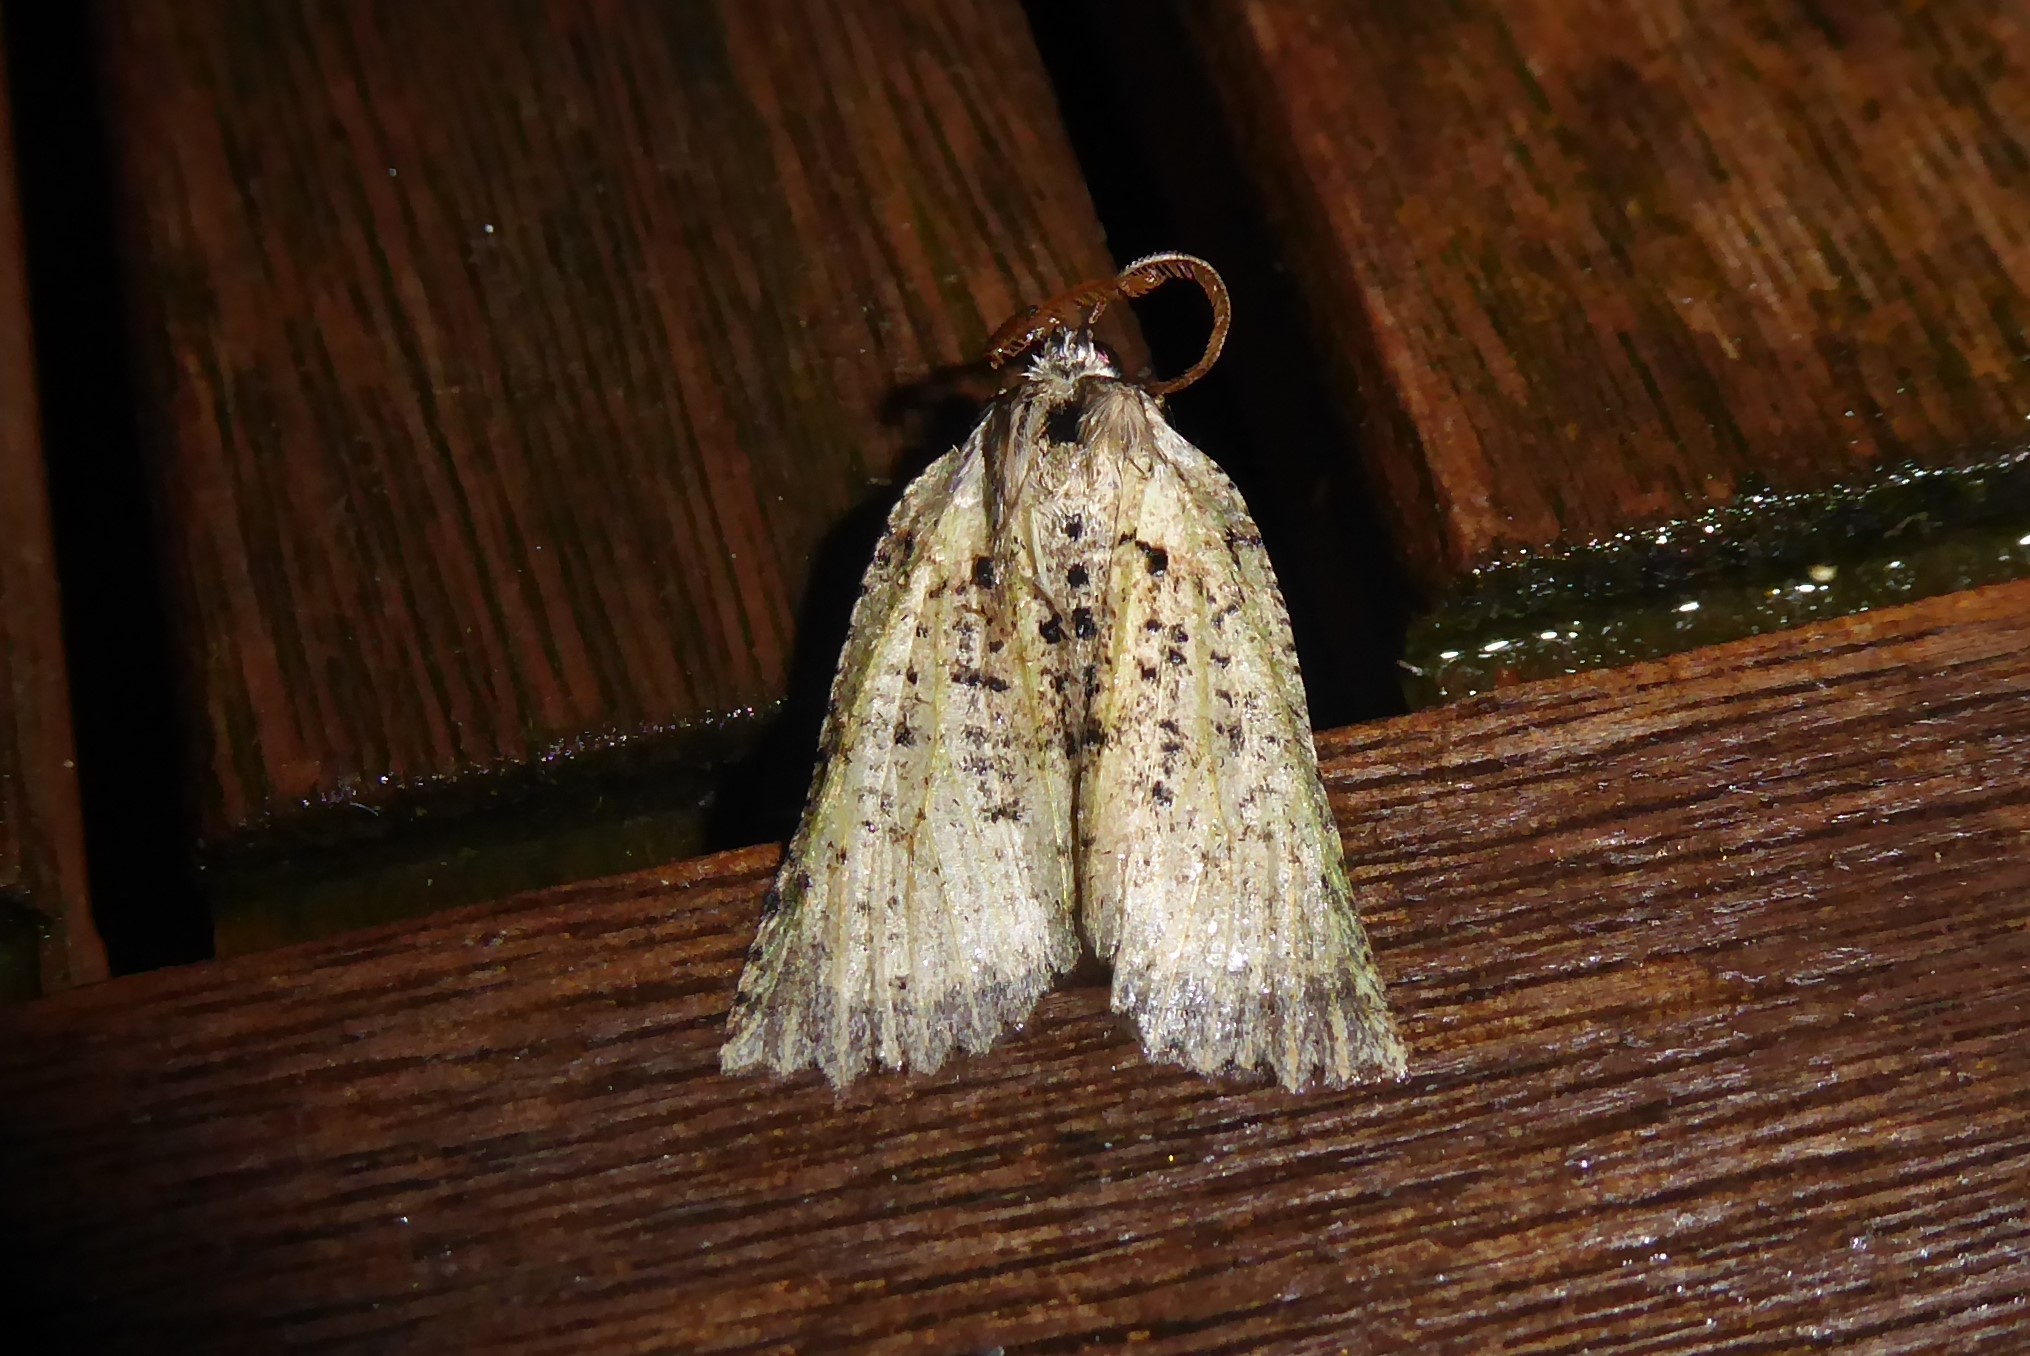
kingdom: Animalia
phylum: Arthropoda
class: Insecta
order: Lepidoptera
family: Geometridae
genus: Declana
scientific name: Declana floccosa
